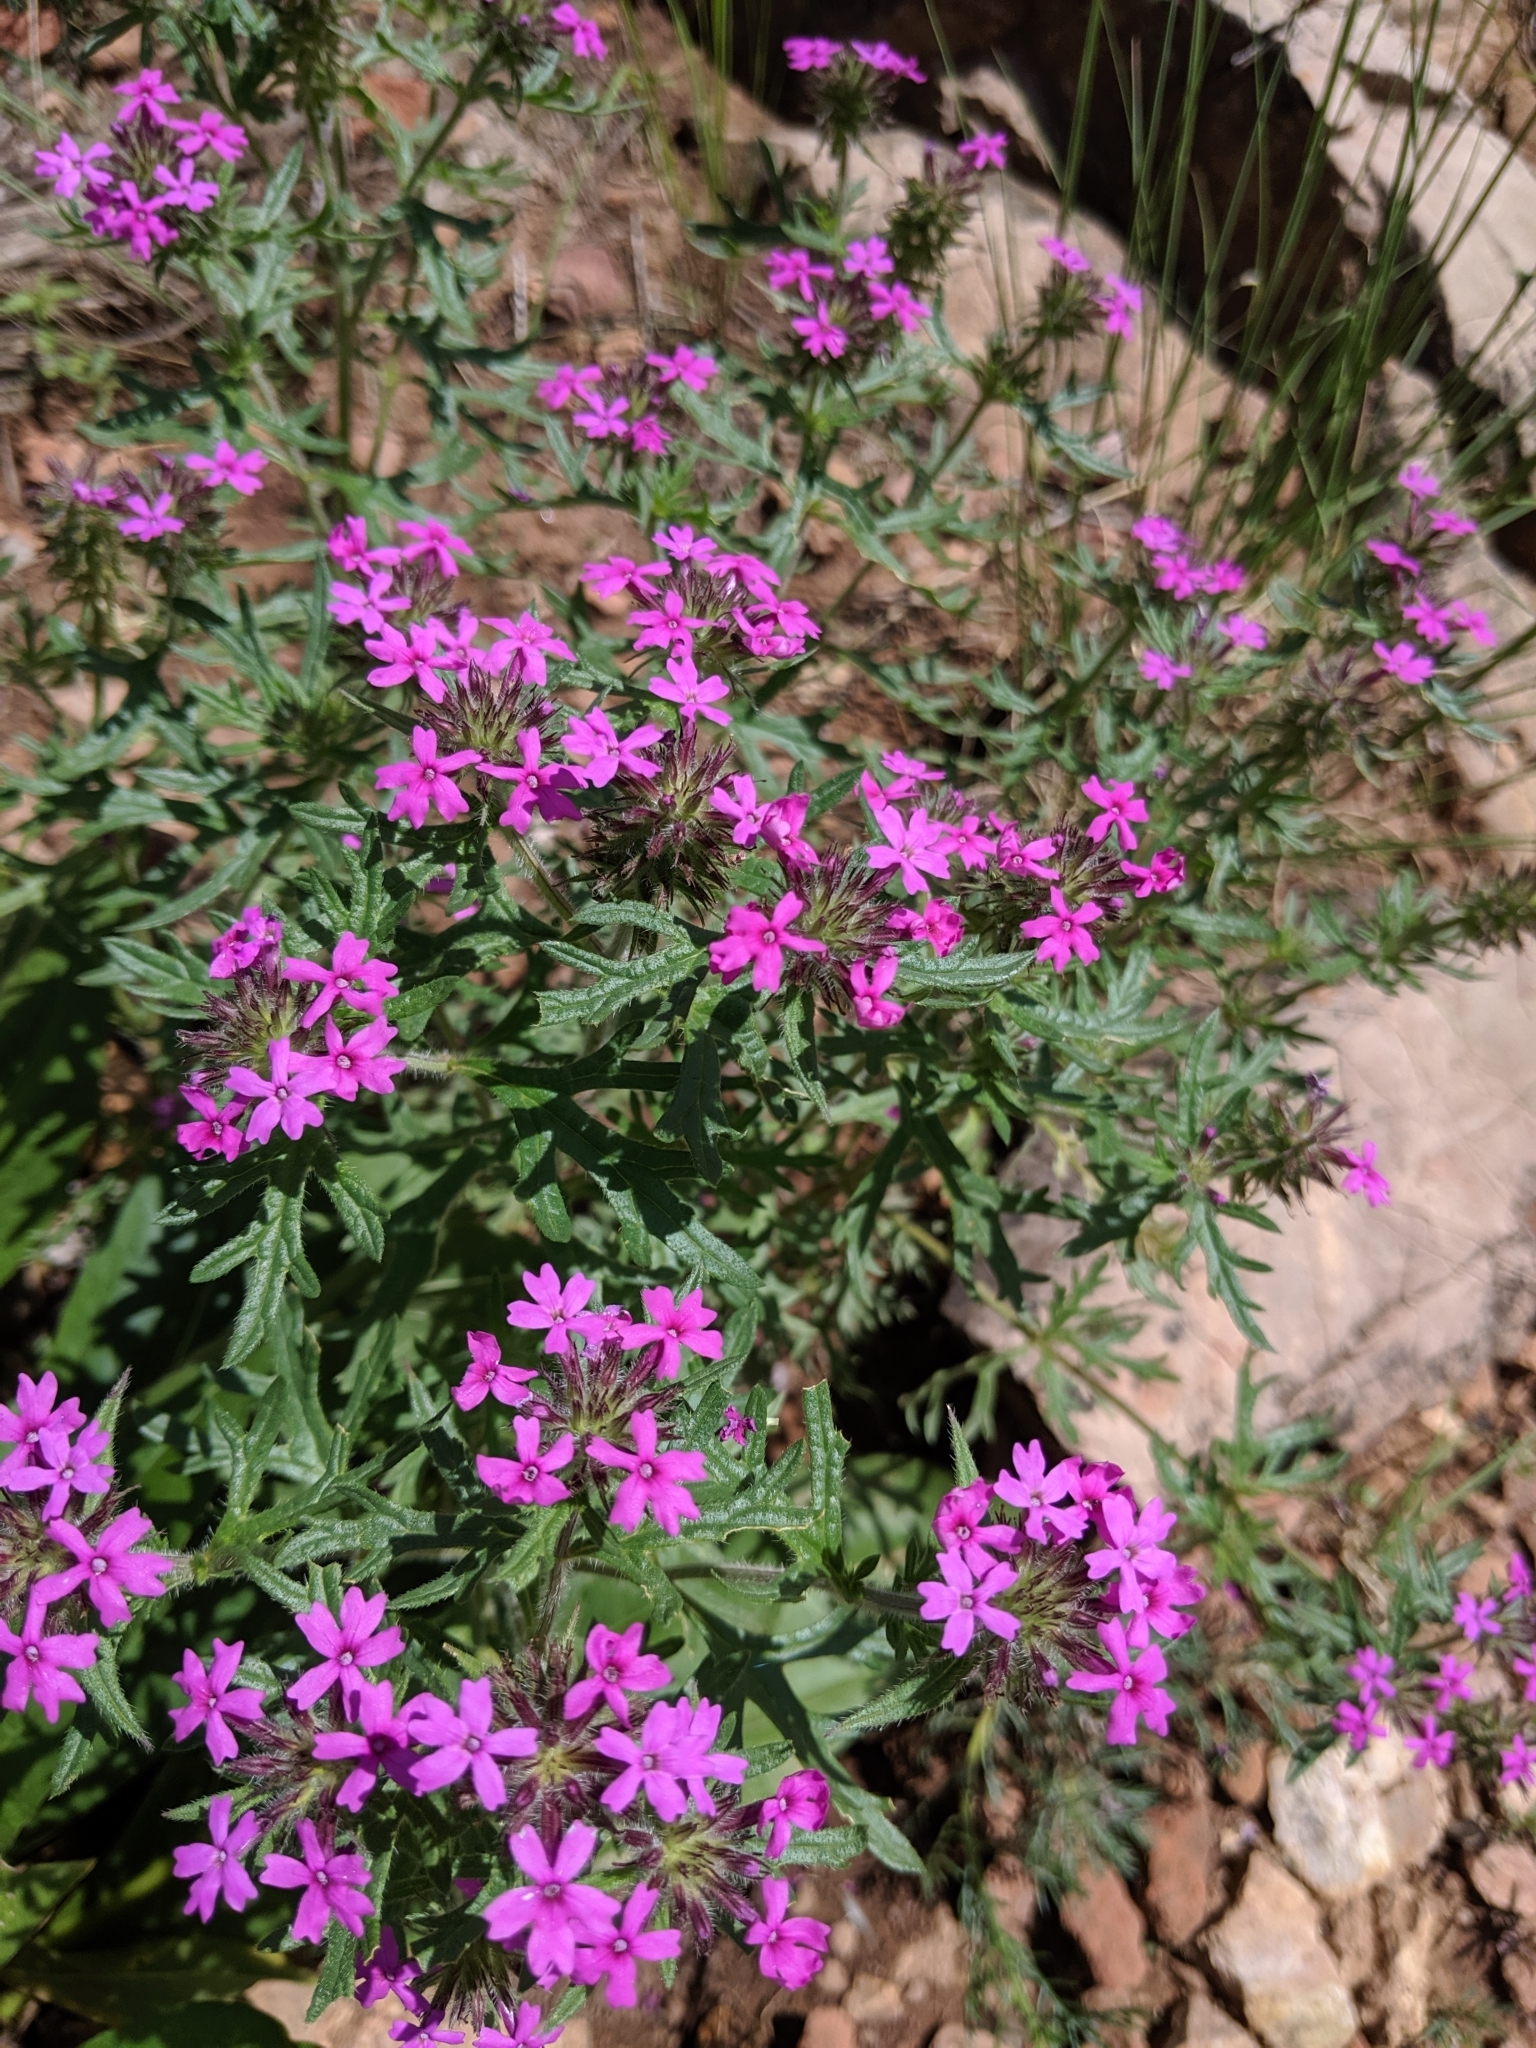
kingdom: Plantae
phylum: Tracheophyta
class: Magnoliopsida
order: Lamiales
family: Verbenaceae
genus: Verbena
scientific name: Verbena chiricahensis
